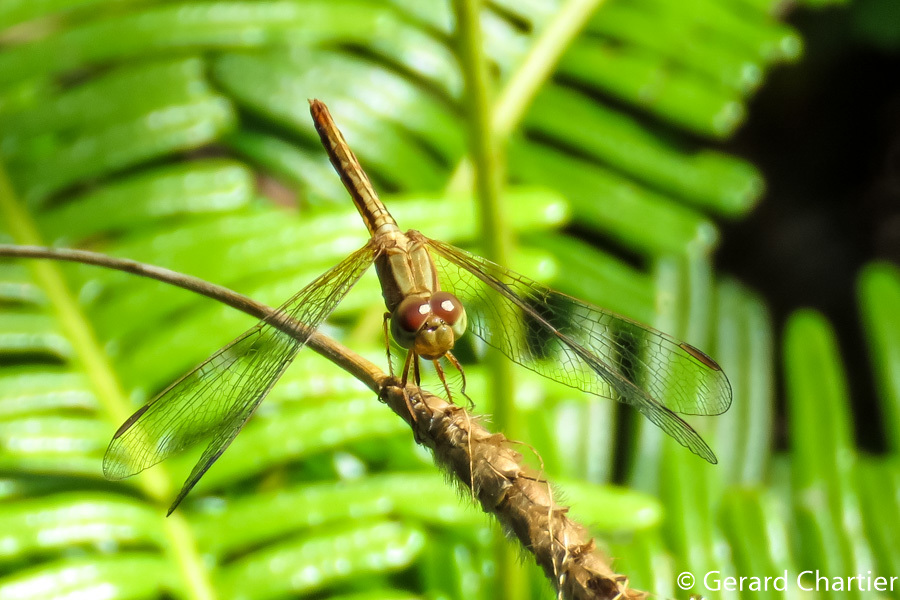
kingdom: Animalia
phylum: Arthropoda
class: Insecta
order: Odonata
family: Libellulidae
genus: Neurothemis
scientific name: Neurothemis intermedia
